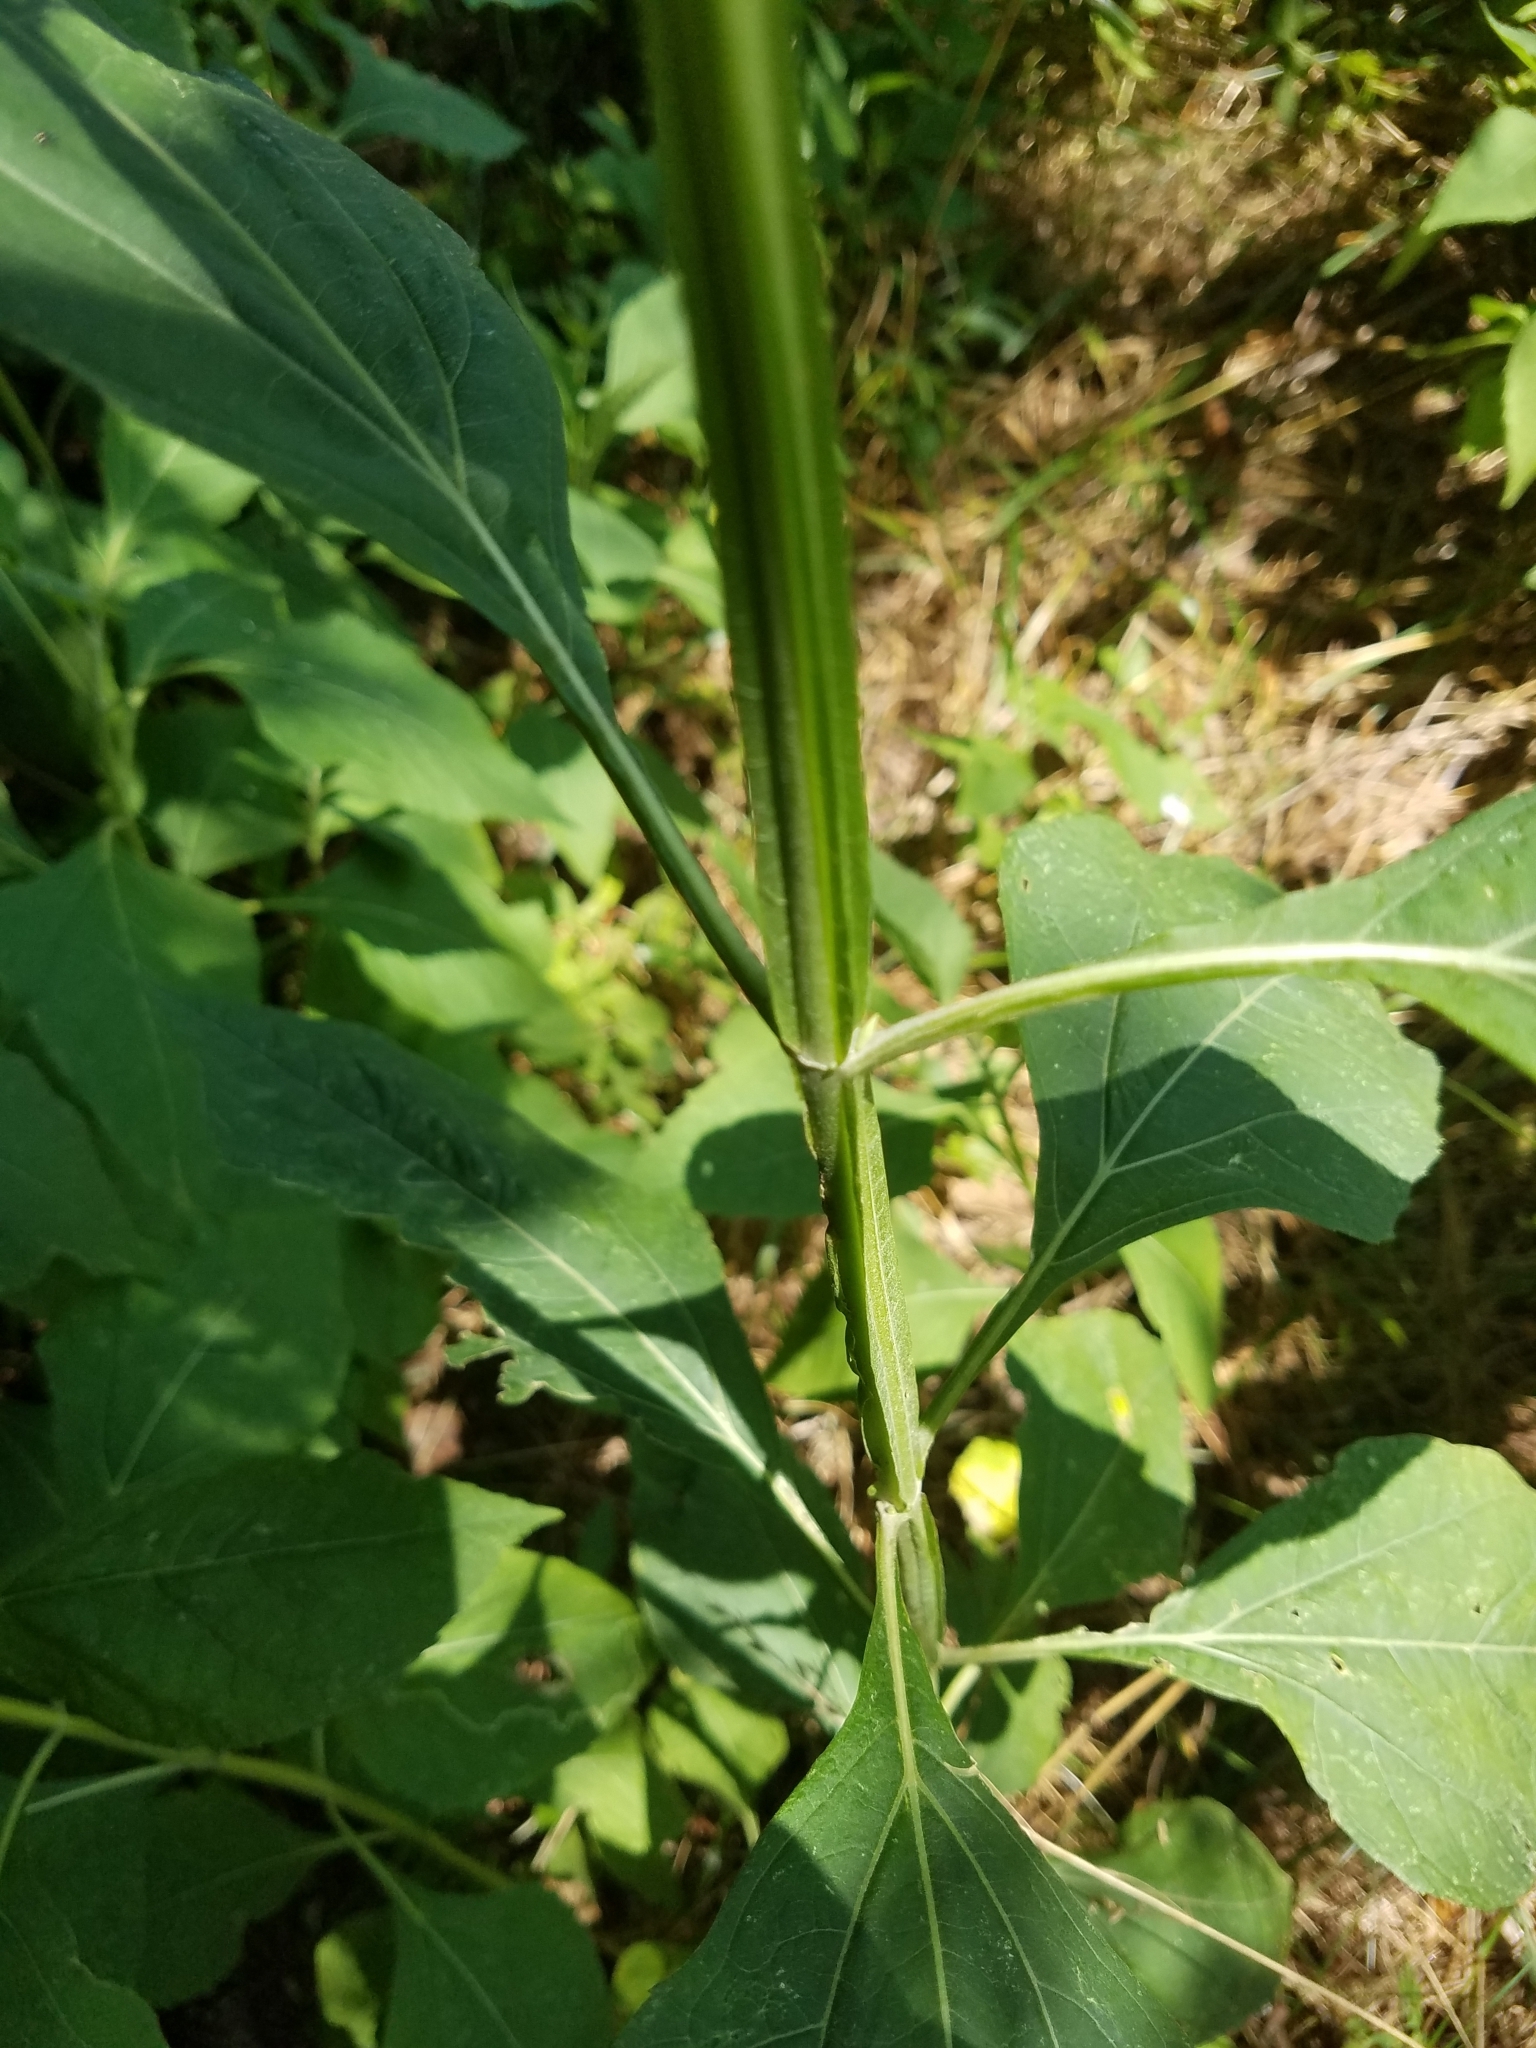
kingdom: Plantae
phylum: Tracheophyta
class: Magnoliopsida
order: Asterales
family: Asteraceae
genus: Verbesina
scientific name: Verbesina occidentalis
